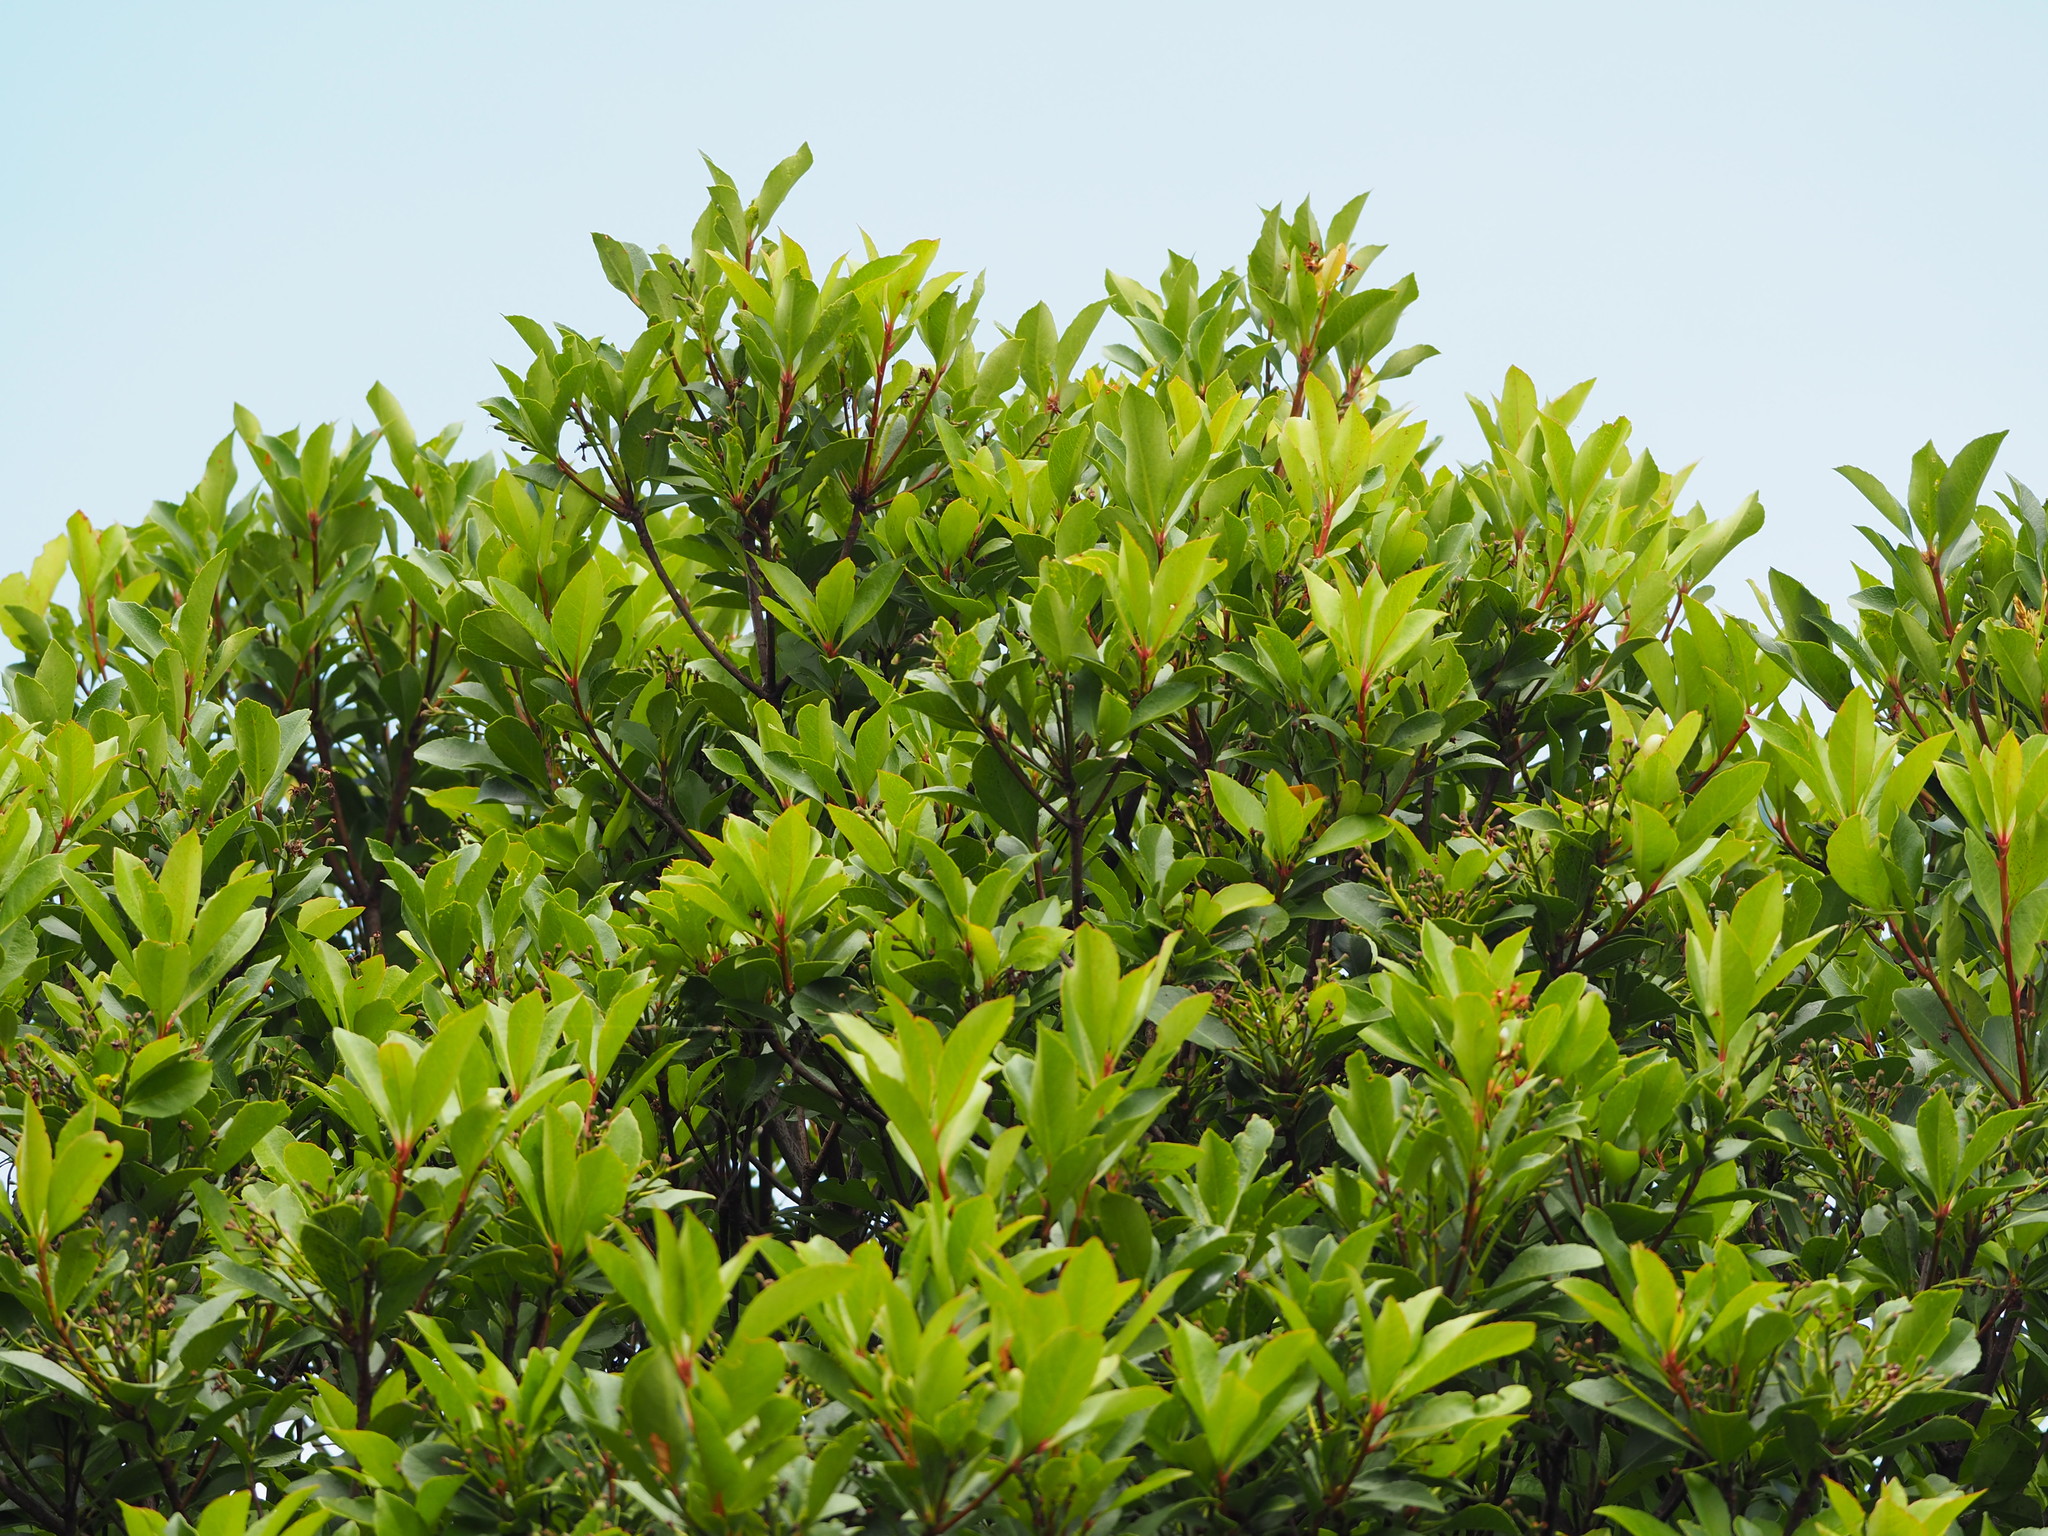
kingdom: Plantae
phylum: Tracheophyta
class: Magnoliopsida
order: Laurales
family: Lauraceae
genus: Machilus
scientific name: Machilus zuihoensis
